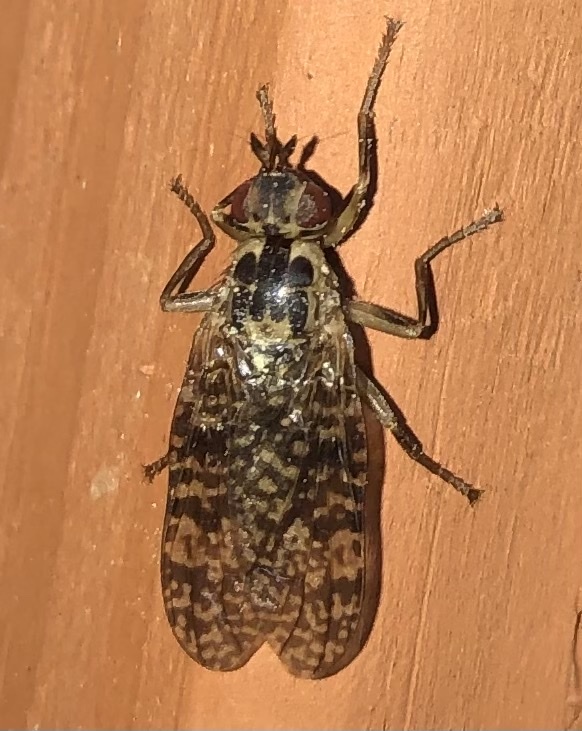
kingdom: Animalia
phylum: Arthropoda
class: Insecta
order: Diptera
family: Pyrgotidae
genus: Pyrgota
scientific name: Pyrgota valida
